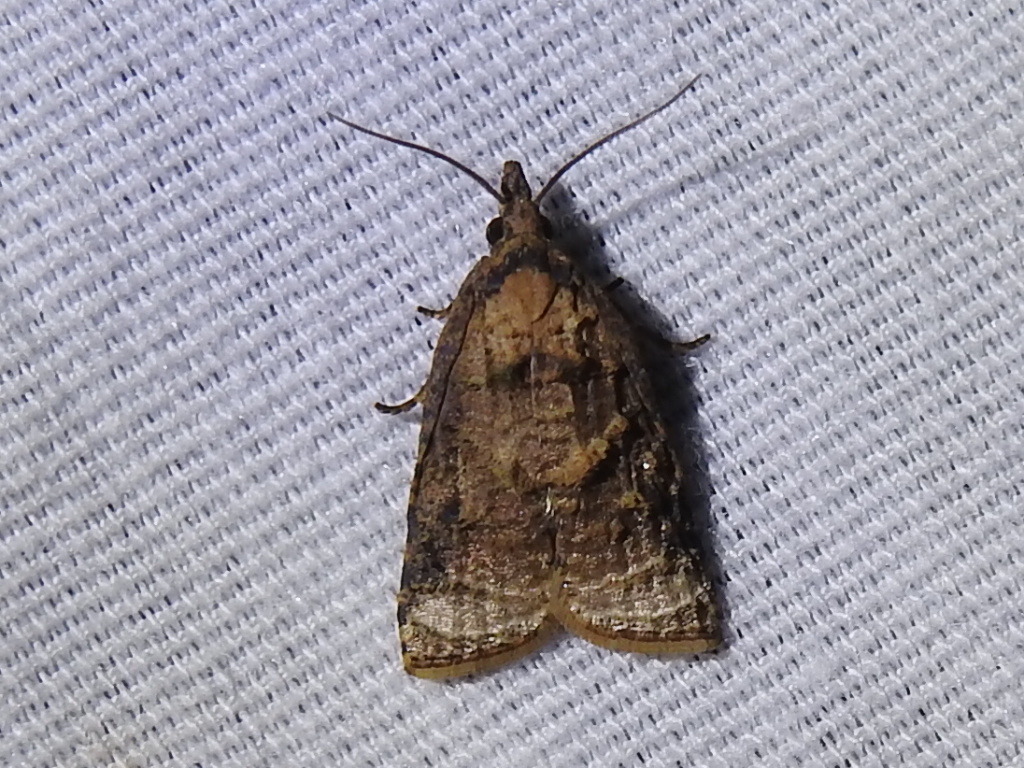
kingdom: Animalia
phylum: Arthropoda
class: Insecta
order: Lepidoptera
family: Tortricidae
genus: Platynota
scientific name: Platynota flavedana
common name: Black-shaded platynota moth
